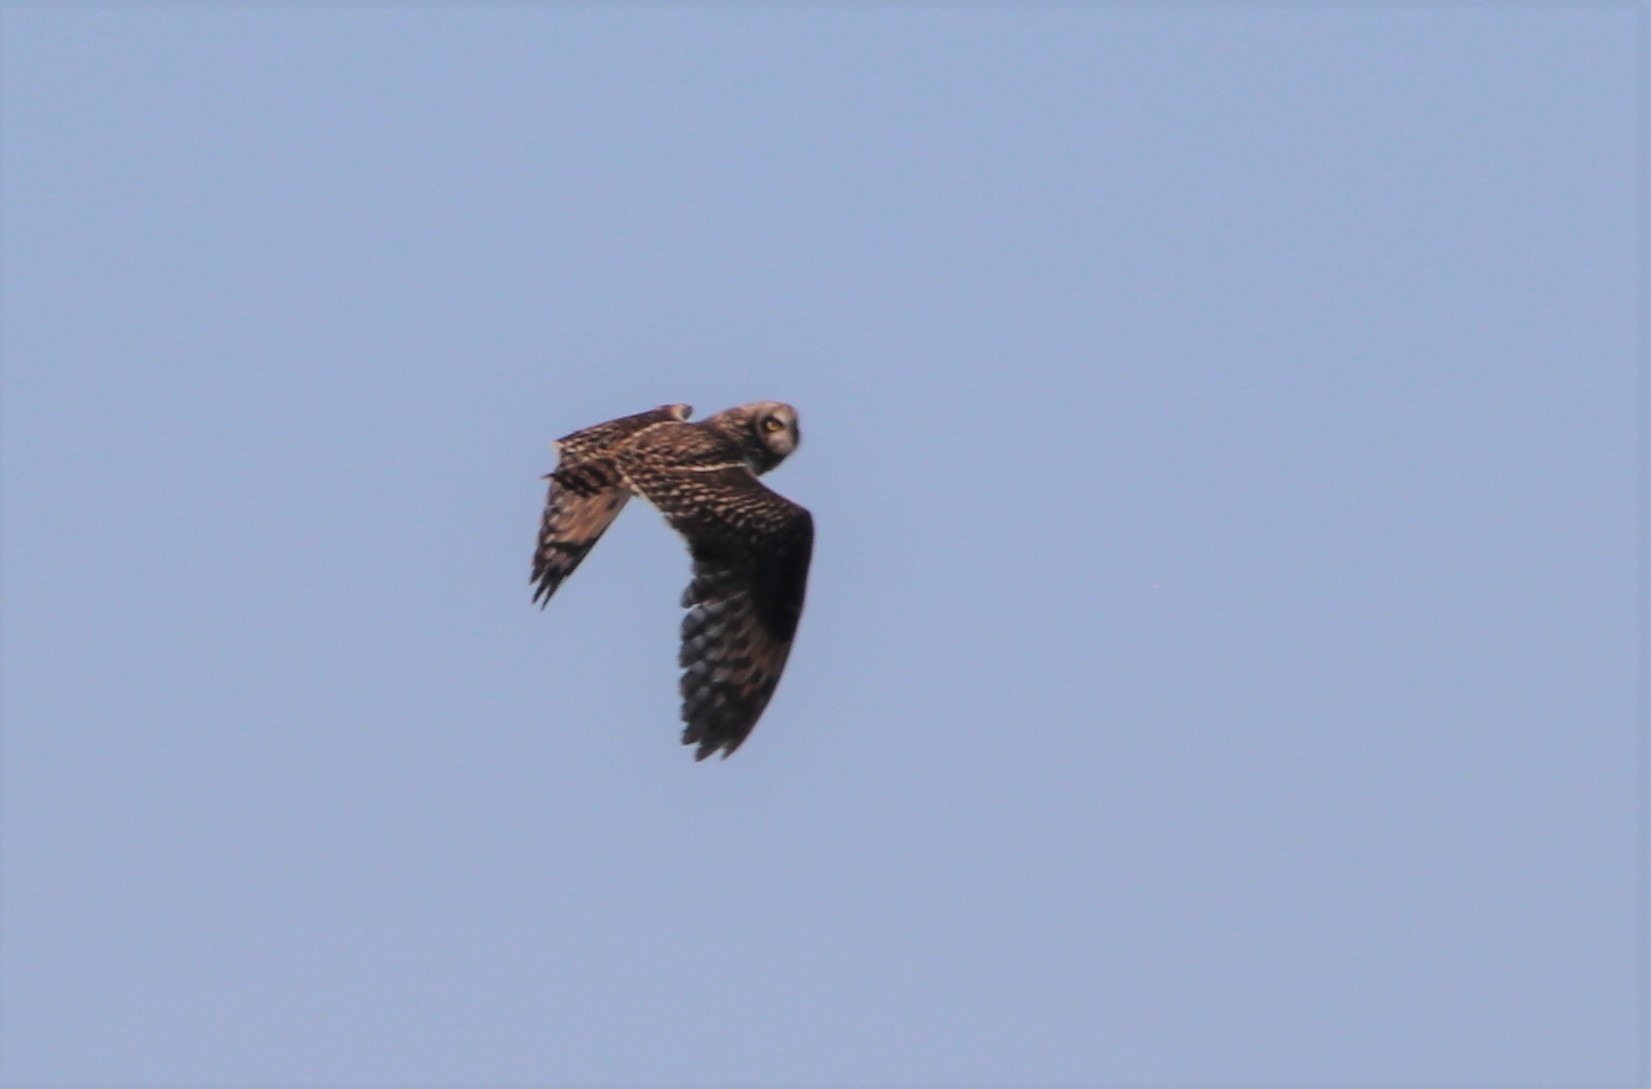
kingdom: Animalia
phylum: Chordata
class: Aves
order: Strigiformes
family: Strigidae
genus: Asio
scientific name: Asio flammeus
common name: Short-eared owl
